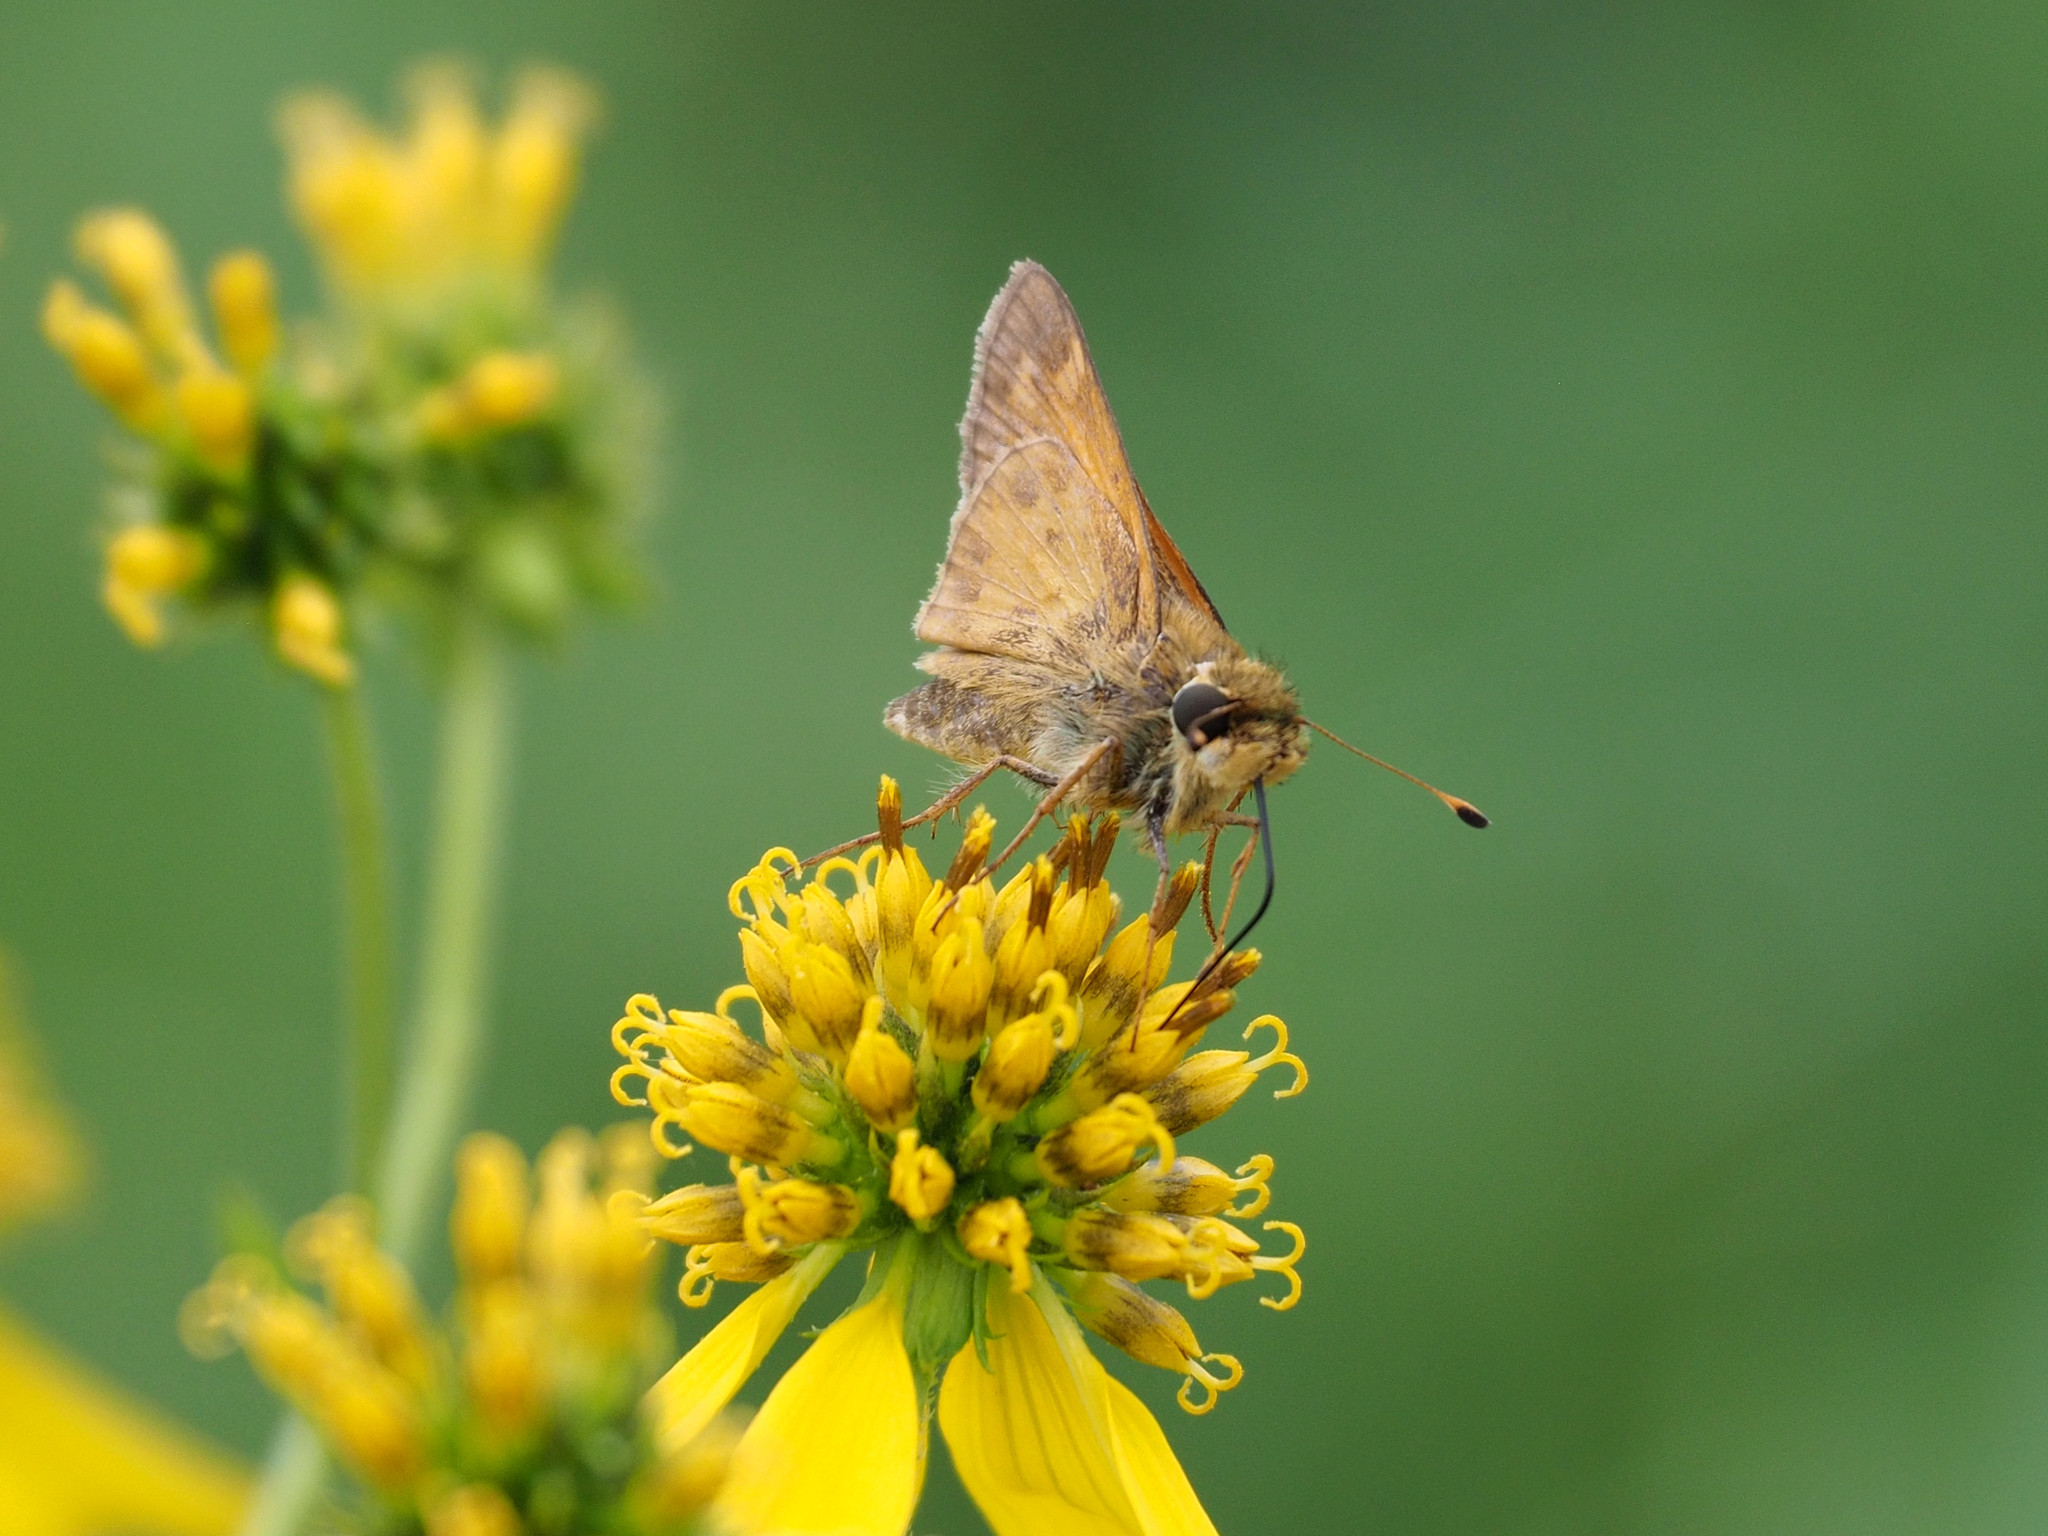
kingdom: Animalia
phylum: Arthropoda
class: Insecta
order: Lepidoptera
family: Hesperiidae
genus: Atalopedes
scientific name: Atalopedes
